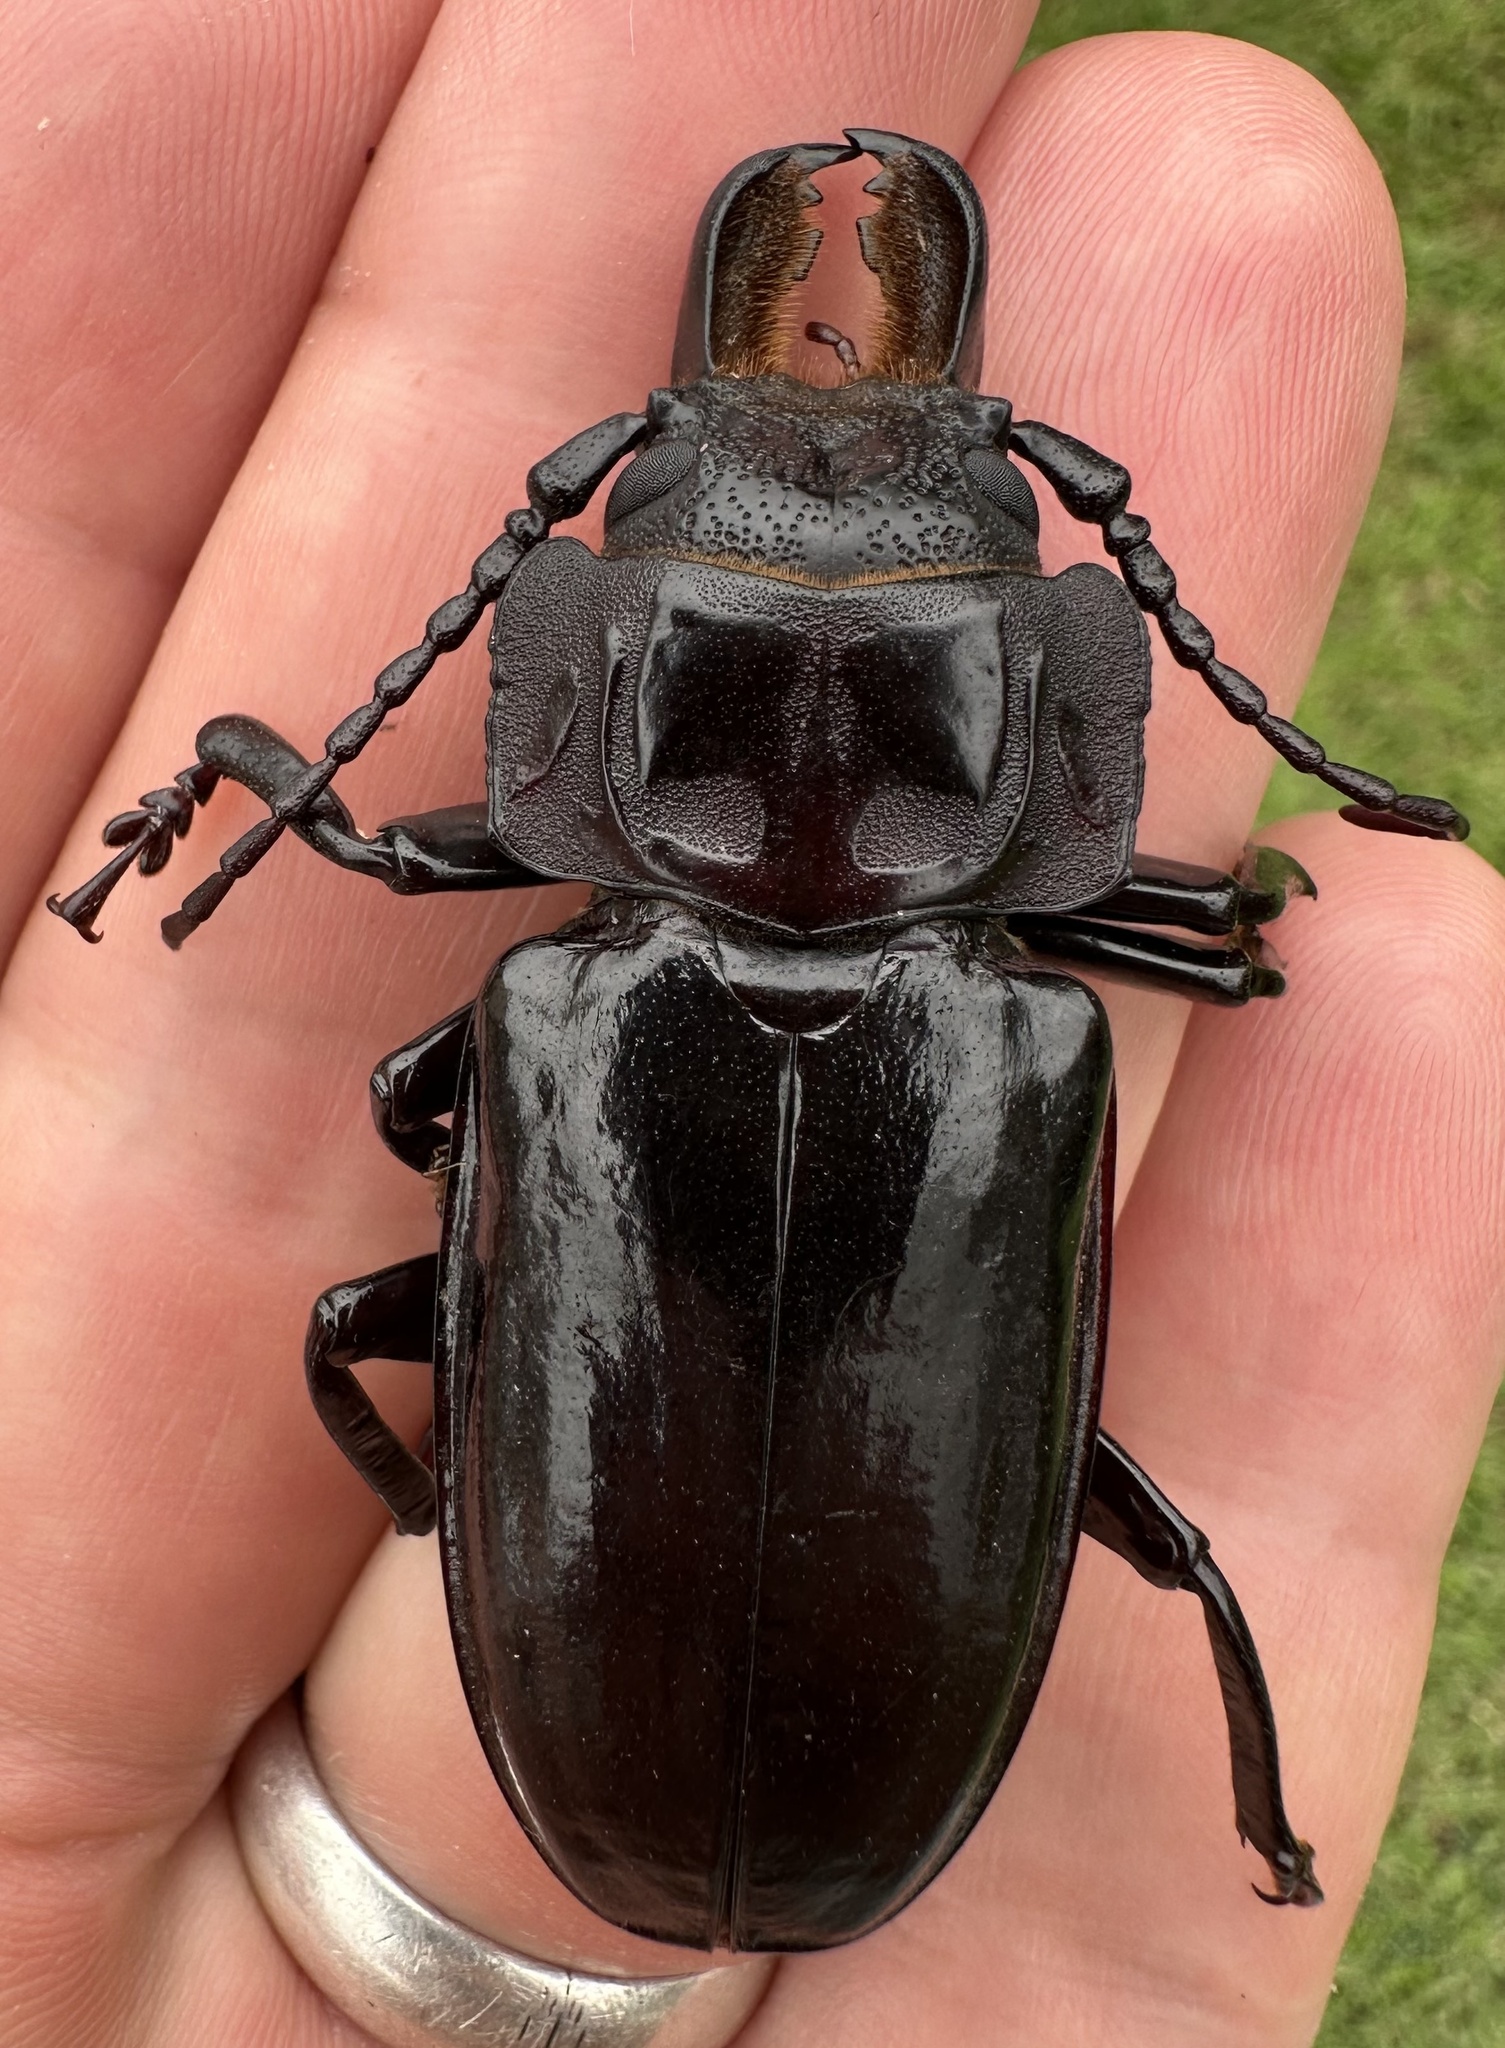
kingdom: Animalia
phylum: Arthropoda
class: Insecta
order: Coleoptera
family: Cerambycidae
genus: Mallodon
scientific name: Mallodon downesii
